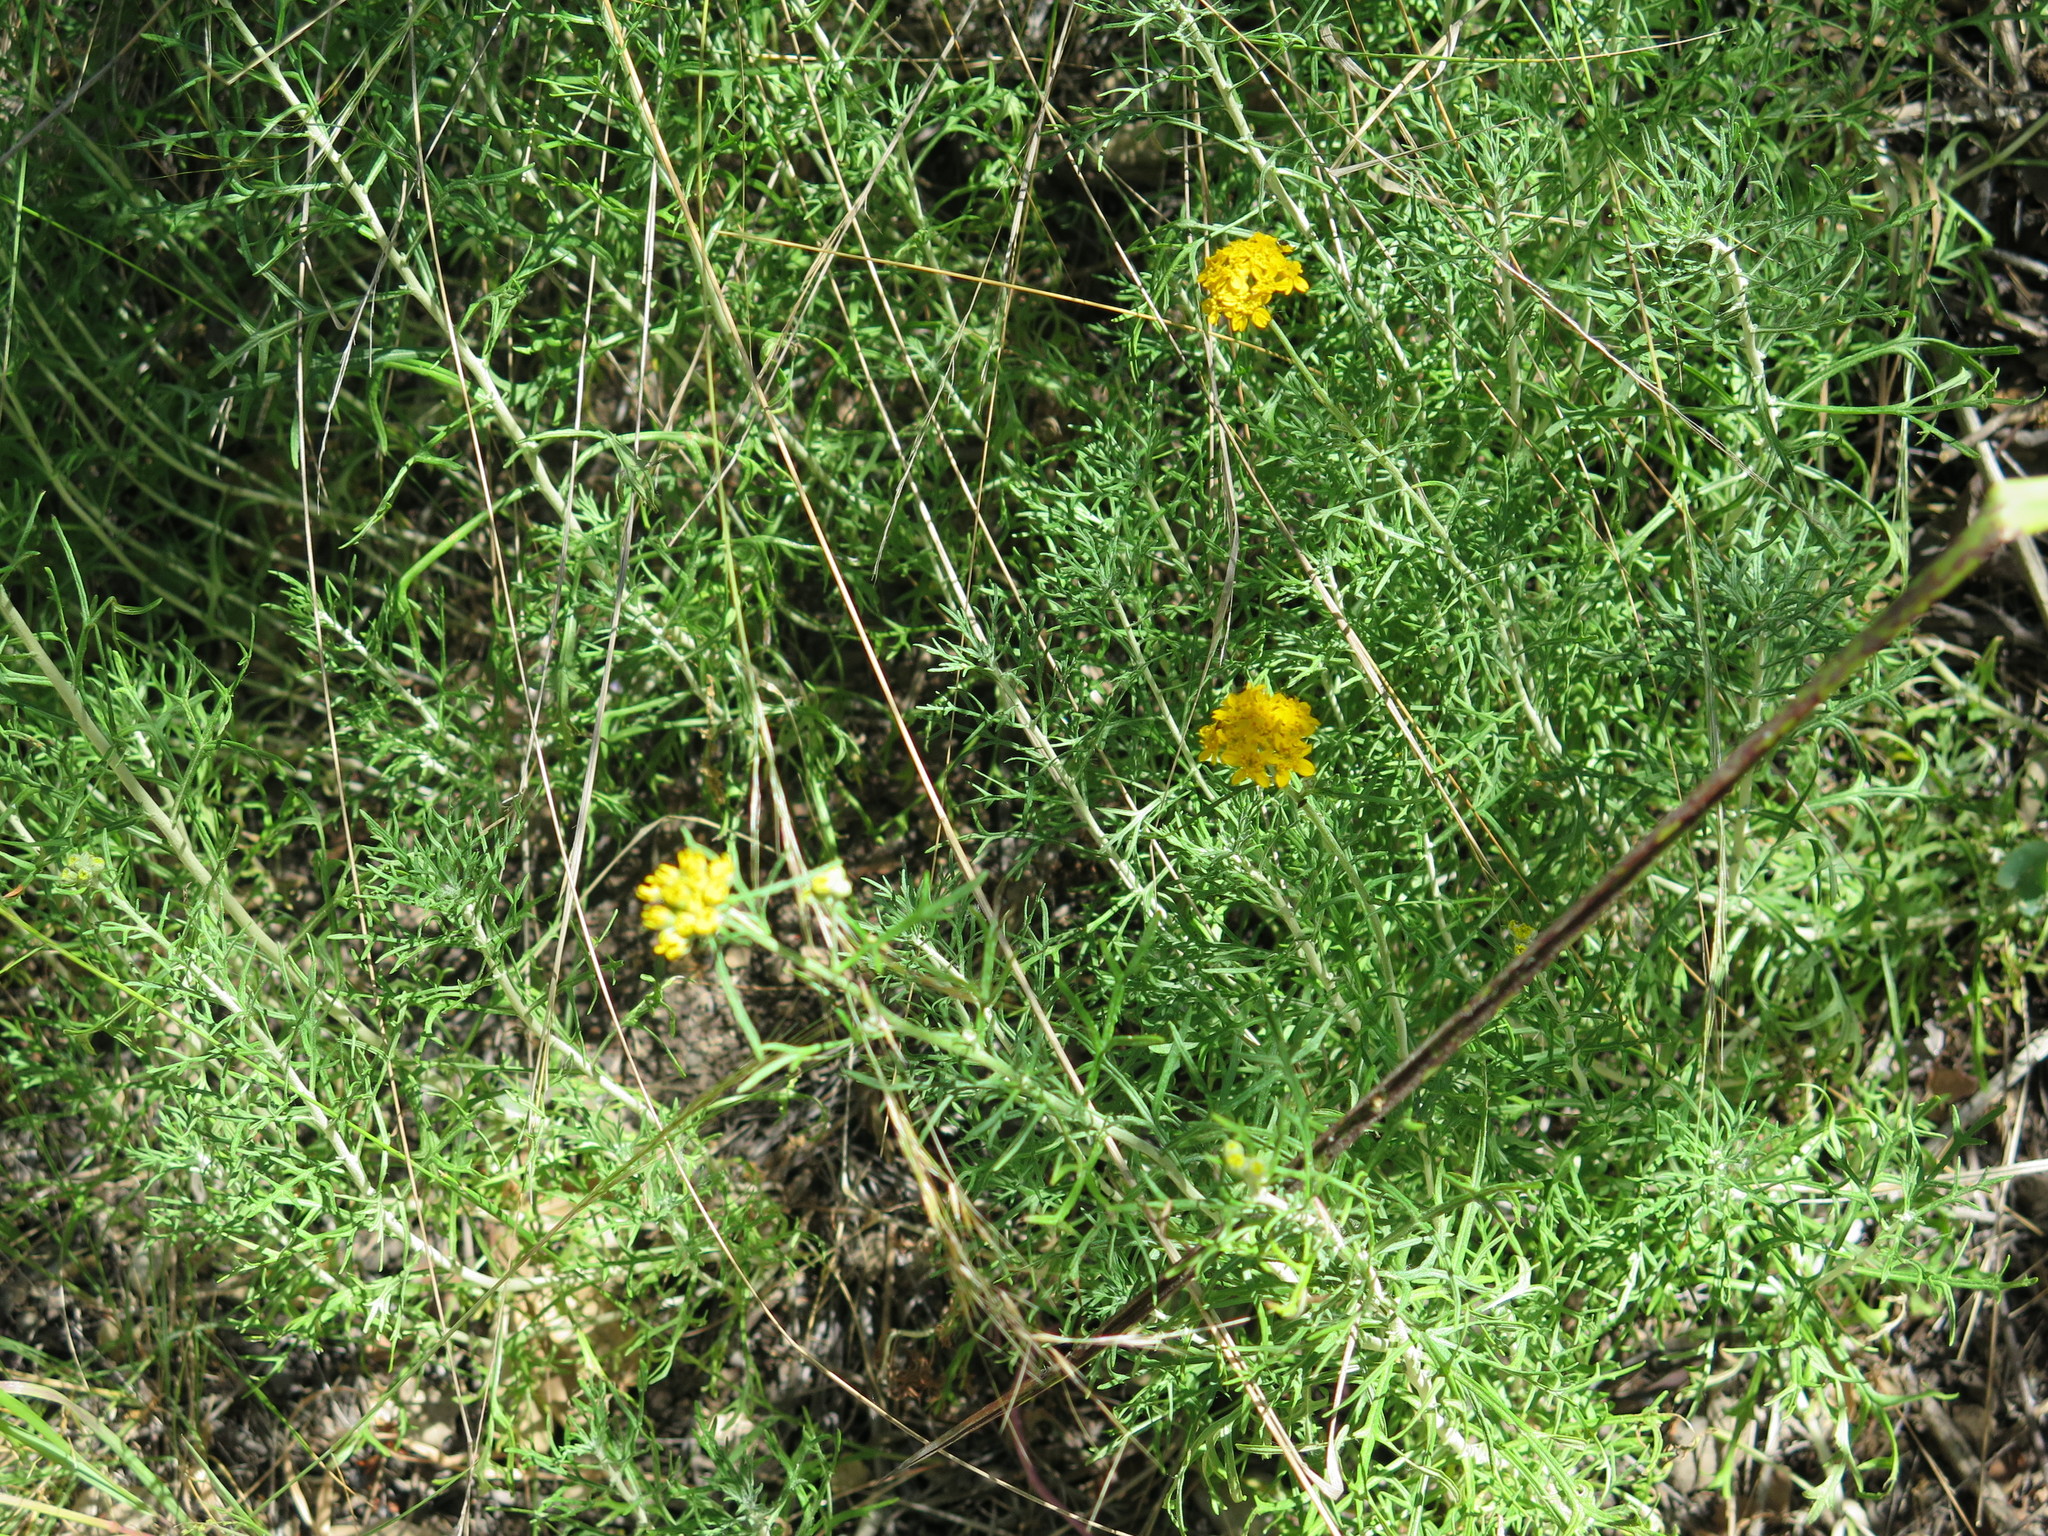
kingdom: Plantae
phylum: Tracheophyta
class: Magnoliopsida
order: Asterales
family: Asteraceae
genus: Eriophyllum
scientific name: Eriophyllum confertiflorum
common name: Golden-yarrow
